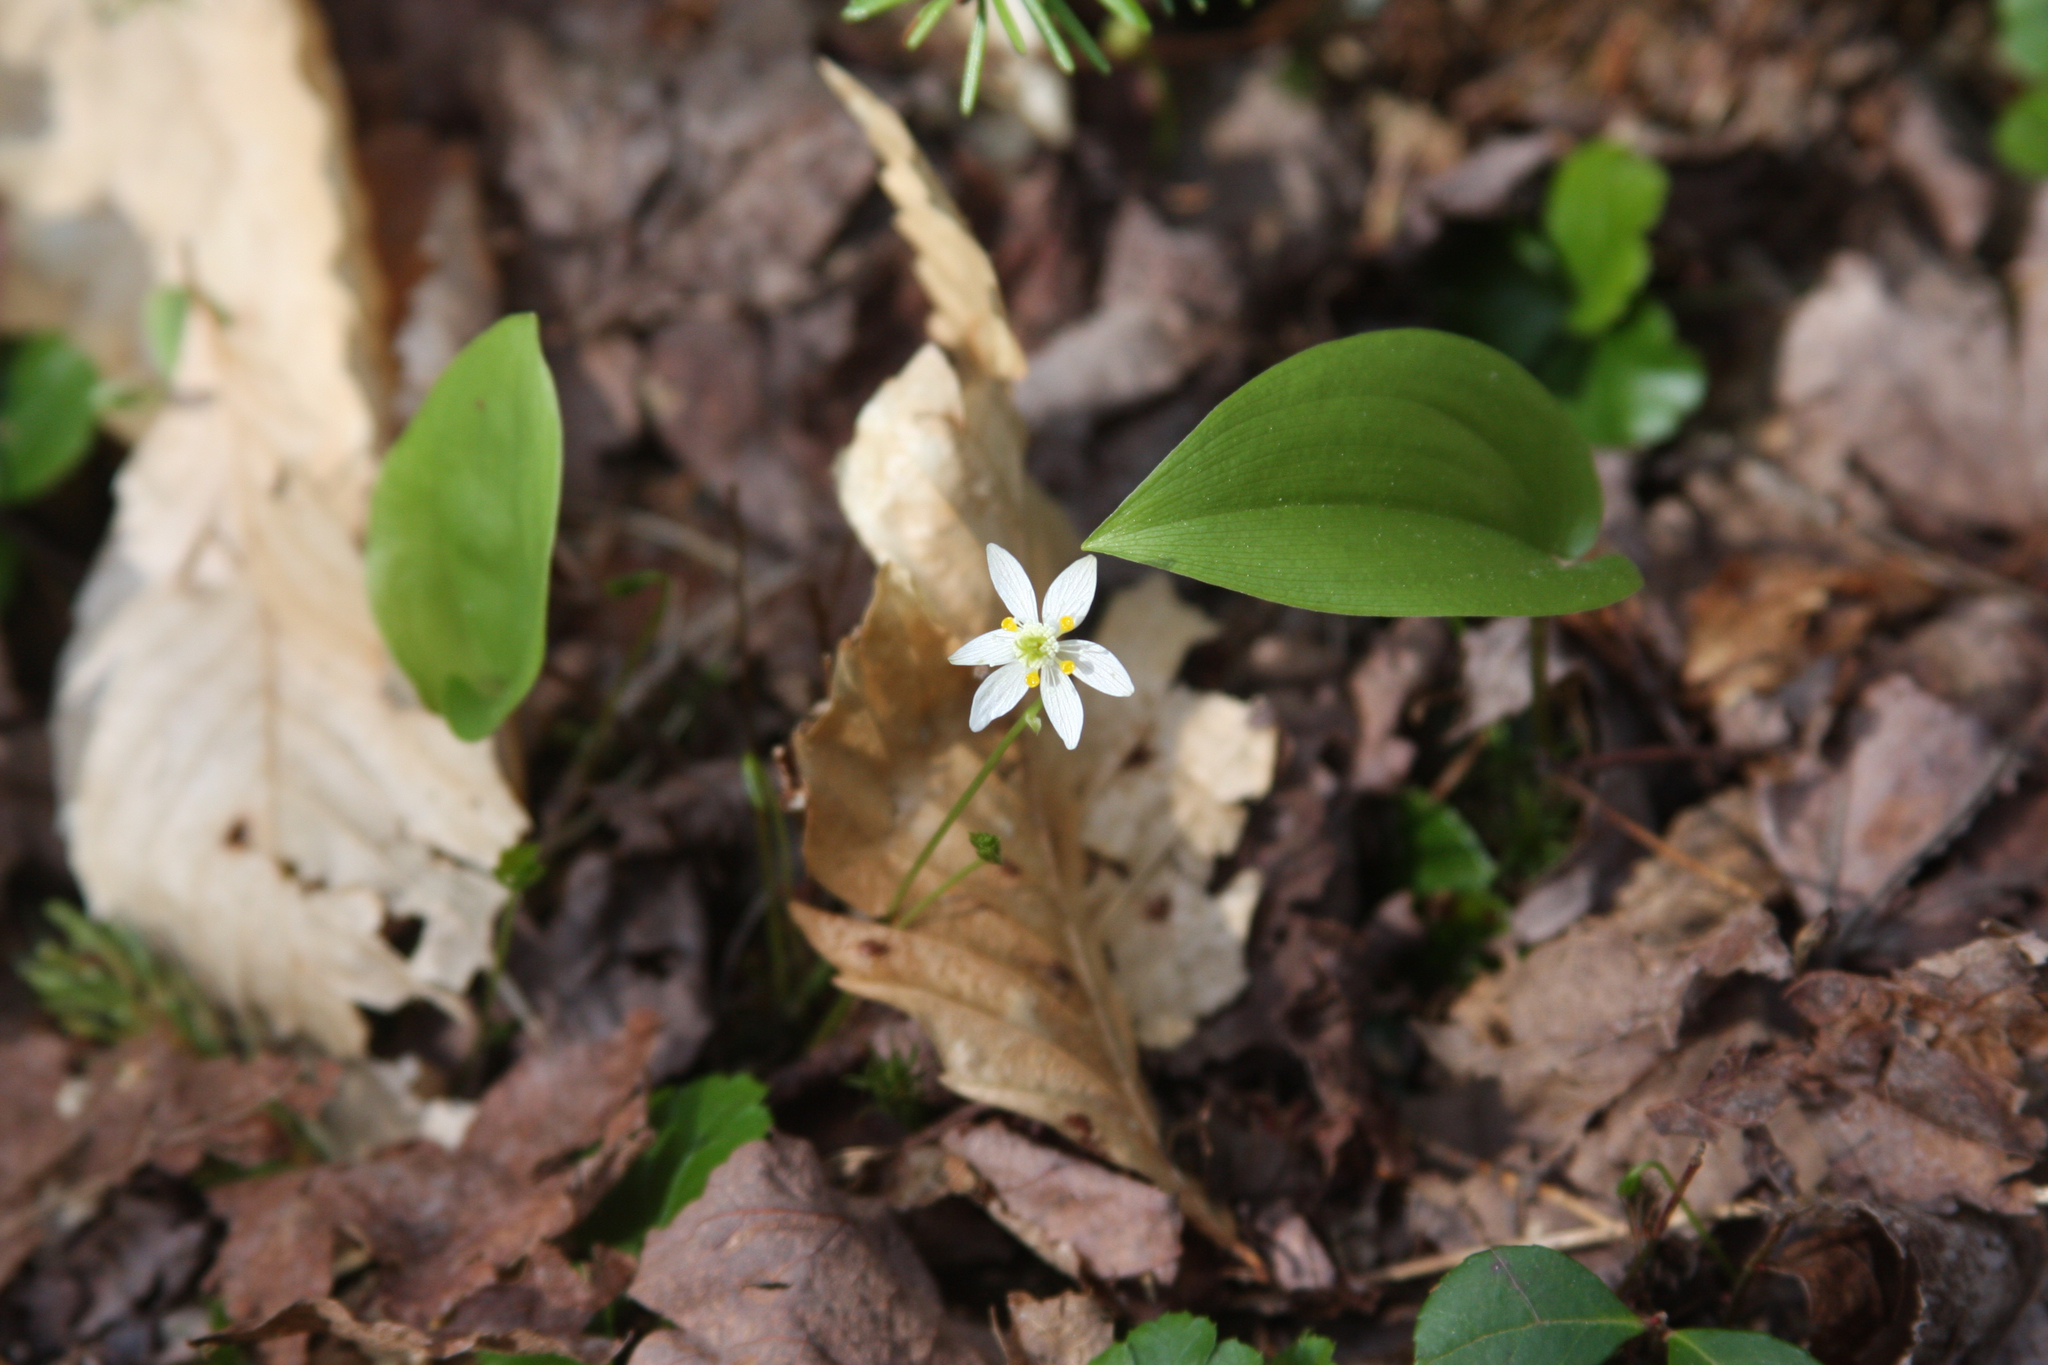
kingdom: Plantae
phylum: Tracheophyta
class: Liliopsida
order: Asparagales
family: Asparagaceae
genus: Maianthemum
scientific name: Maianthemum canadense
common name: False lily-of-the-valley
